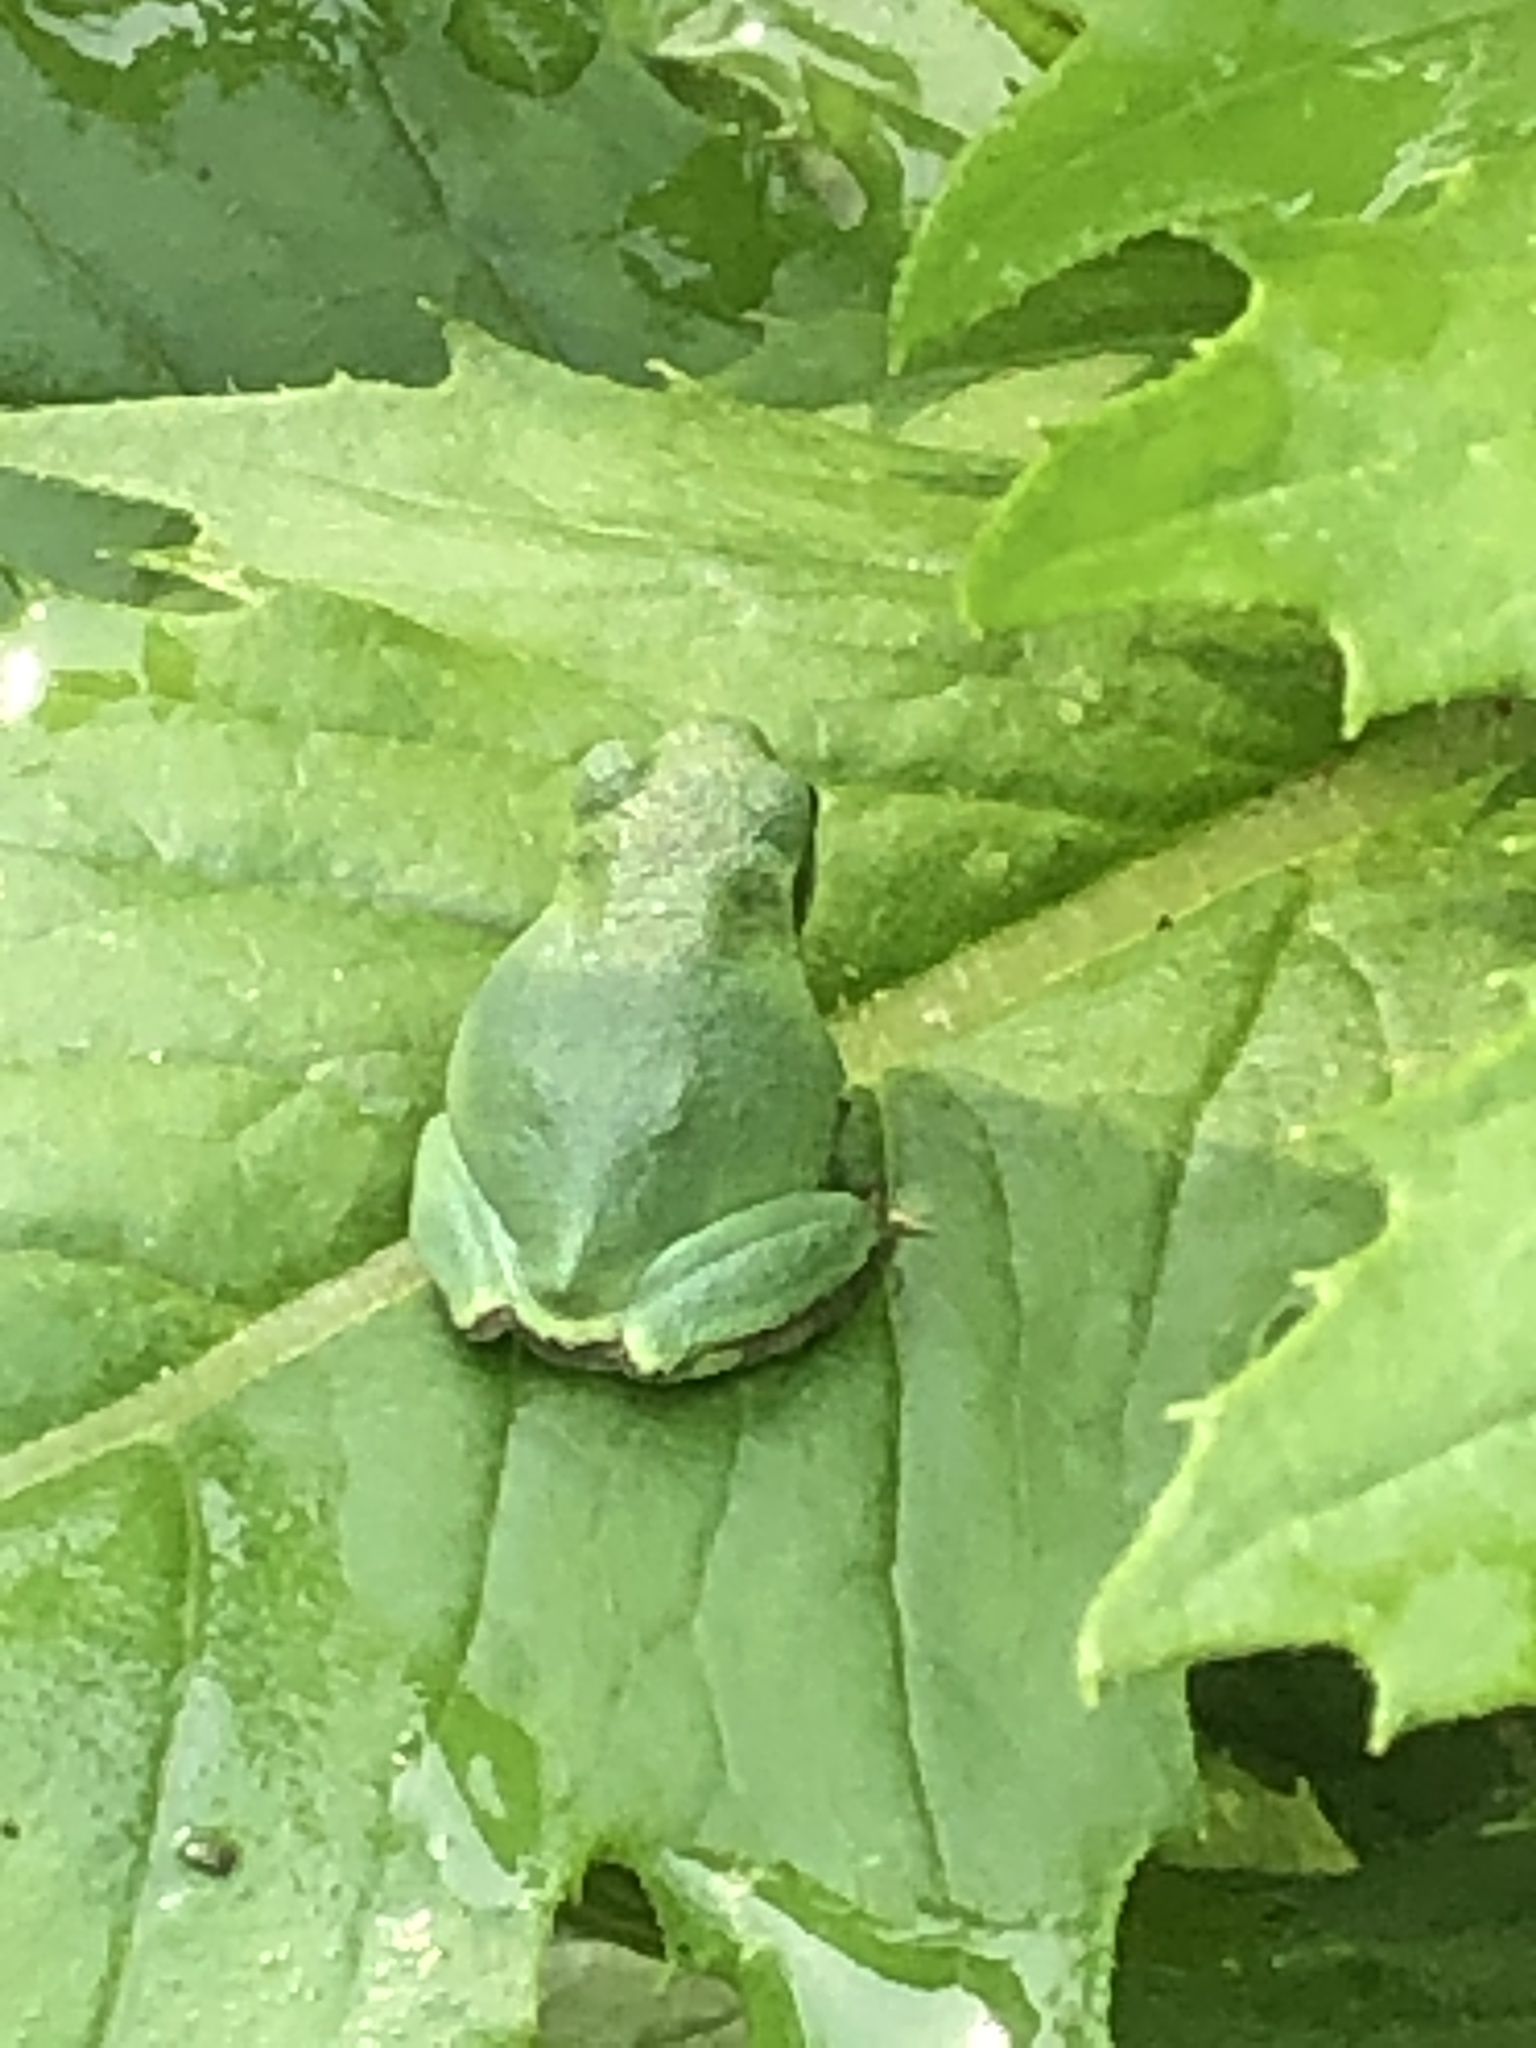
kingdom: Animalia
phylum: Chordata
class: Amphibia
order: Anura
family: Hylidae
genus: Hyla
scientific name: Hyla
